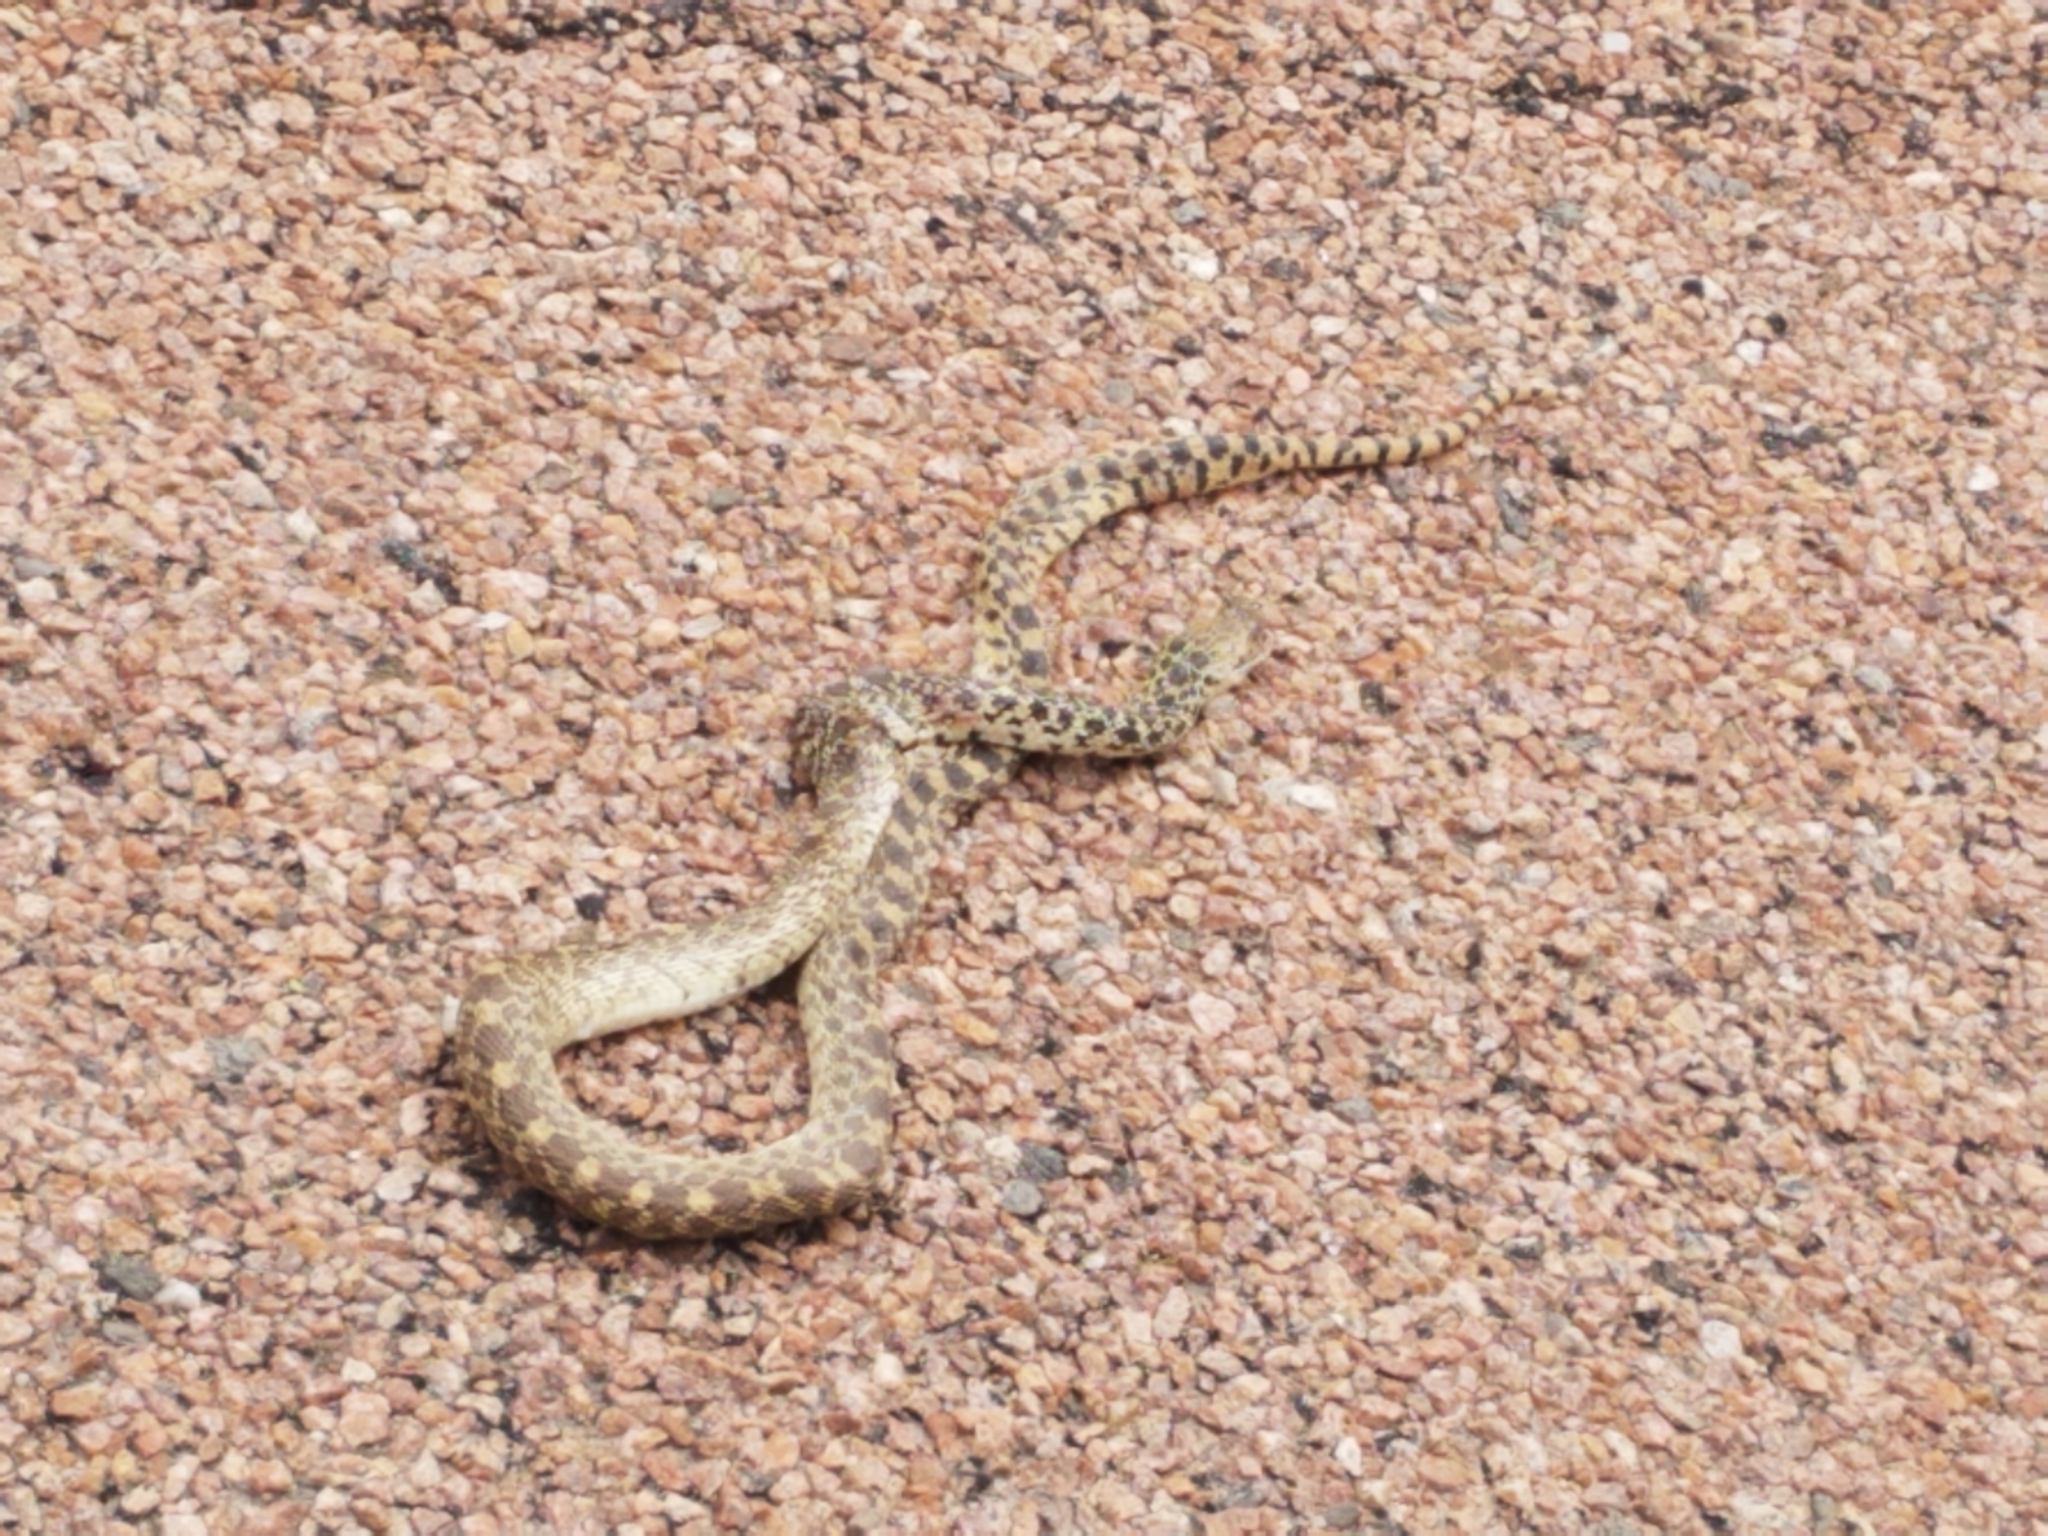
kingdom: Animalia
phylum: Chordata
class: Squamata
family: Colubridae
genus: Pituophis
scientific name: Pituophis catenifer
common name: Gopher snake
